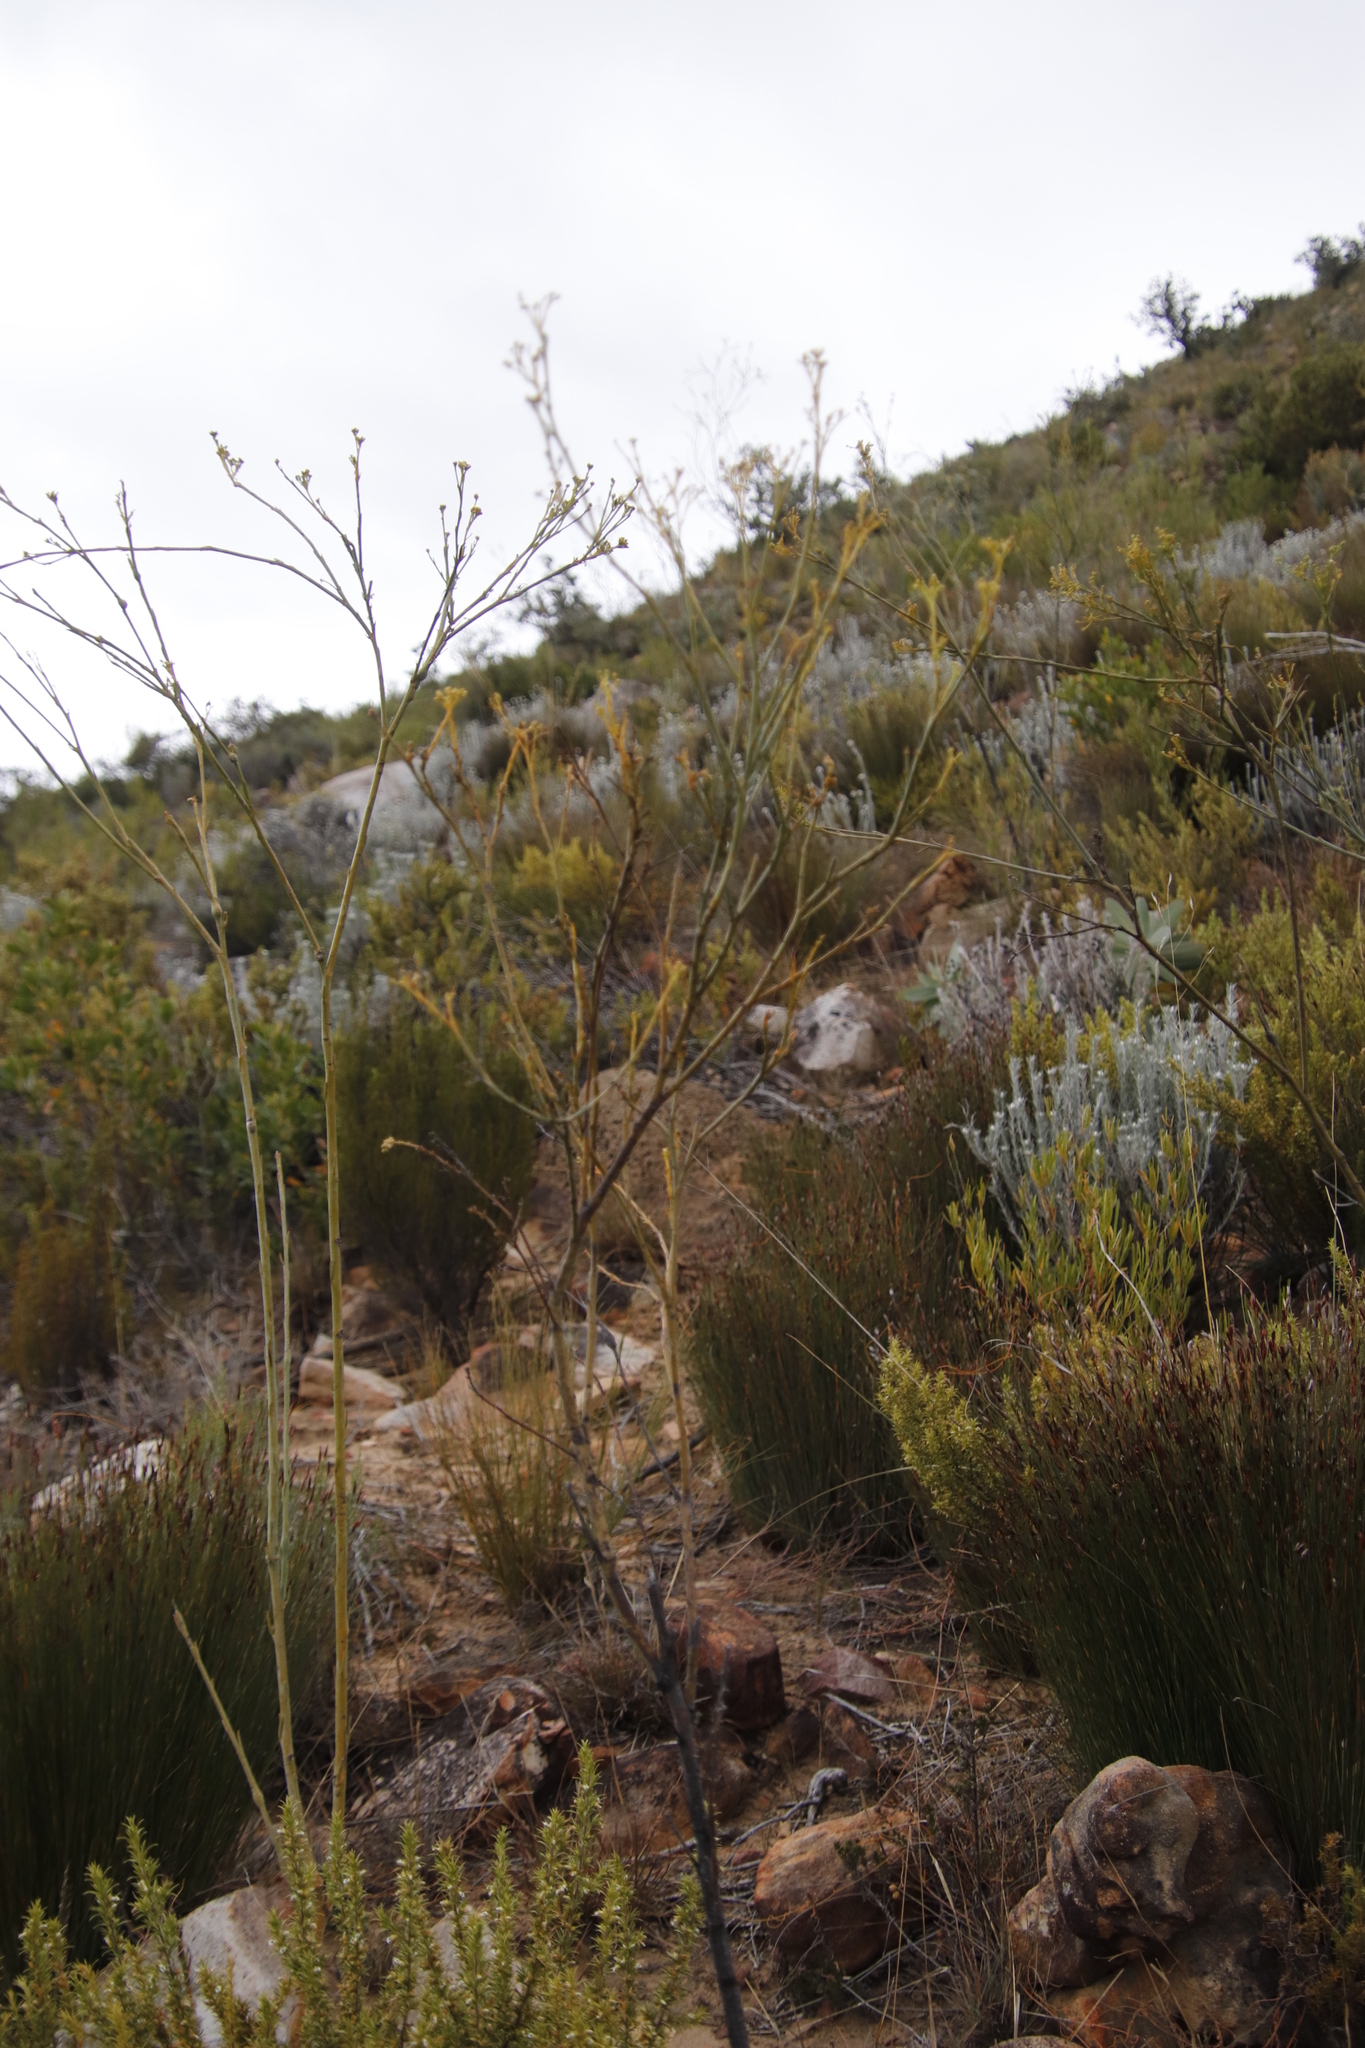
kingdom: Plantae
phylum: Tracheophyta
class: Magnoliopsida
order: Santalales
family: Thesiaceae
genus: Thesium
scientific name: Thesium strictum
